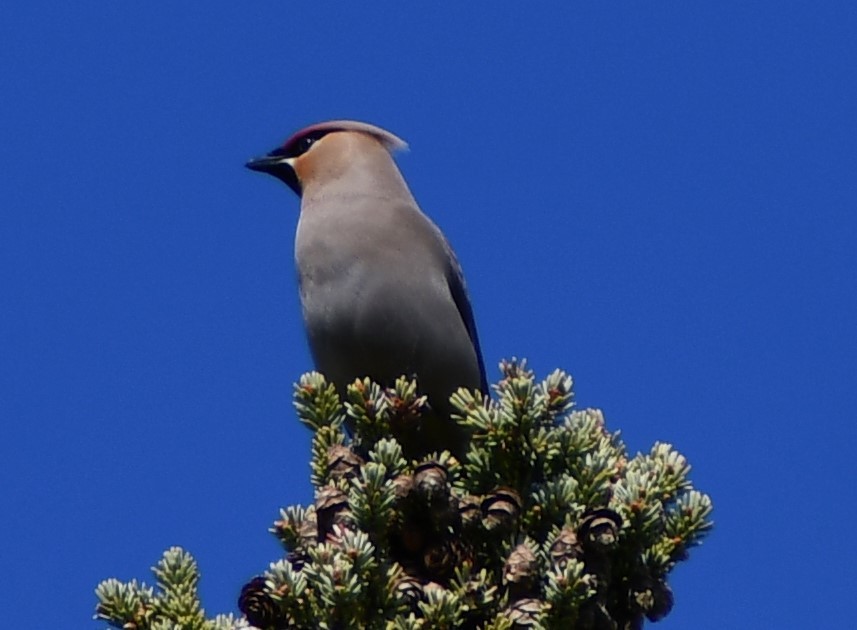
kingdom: Animalia
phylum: Chordata
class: Aves
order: Passeriformes
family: Bombycillidae
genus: Bombycilla
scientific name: Bombycilla garrulus
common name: Bohemian waxwing
